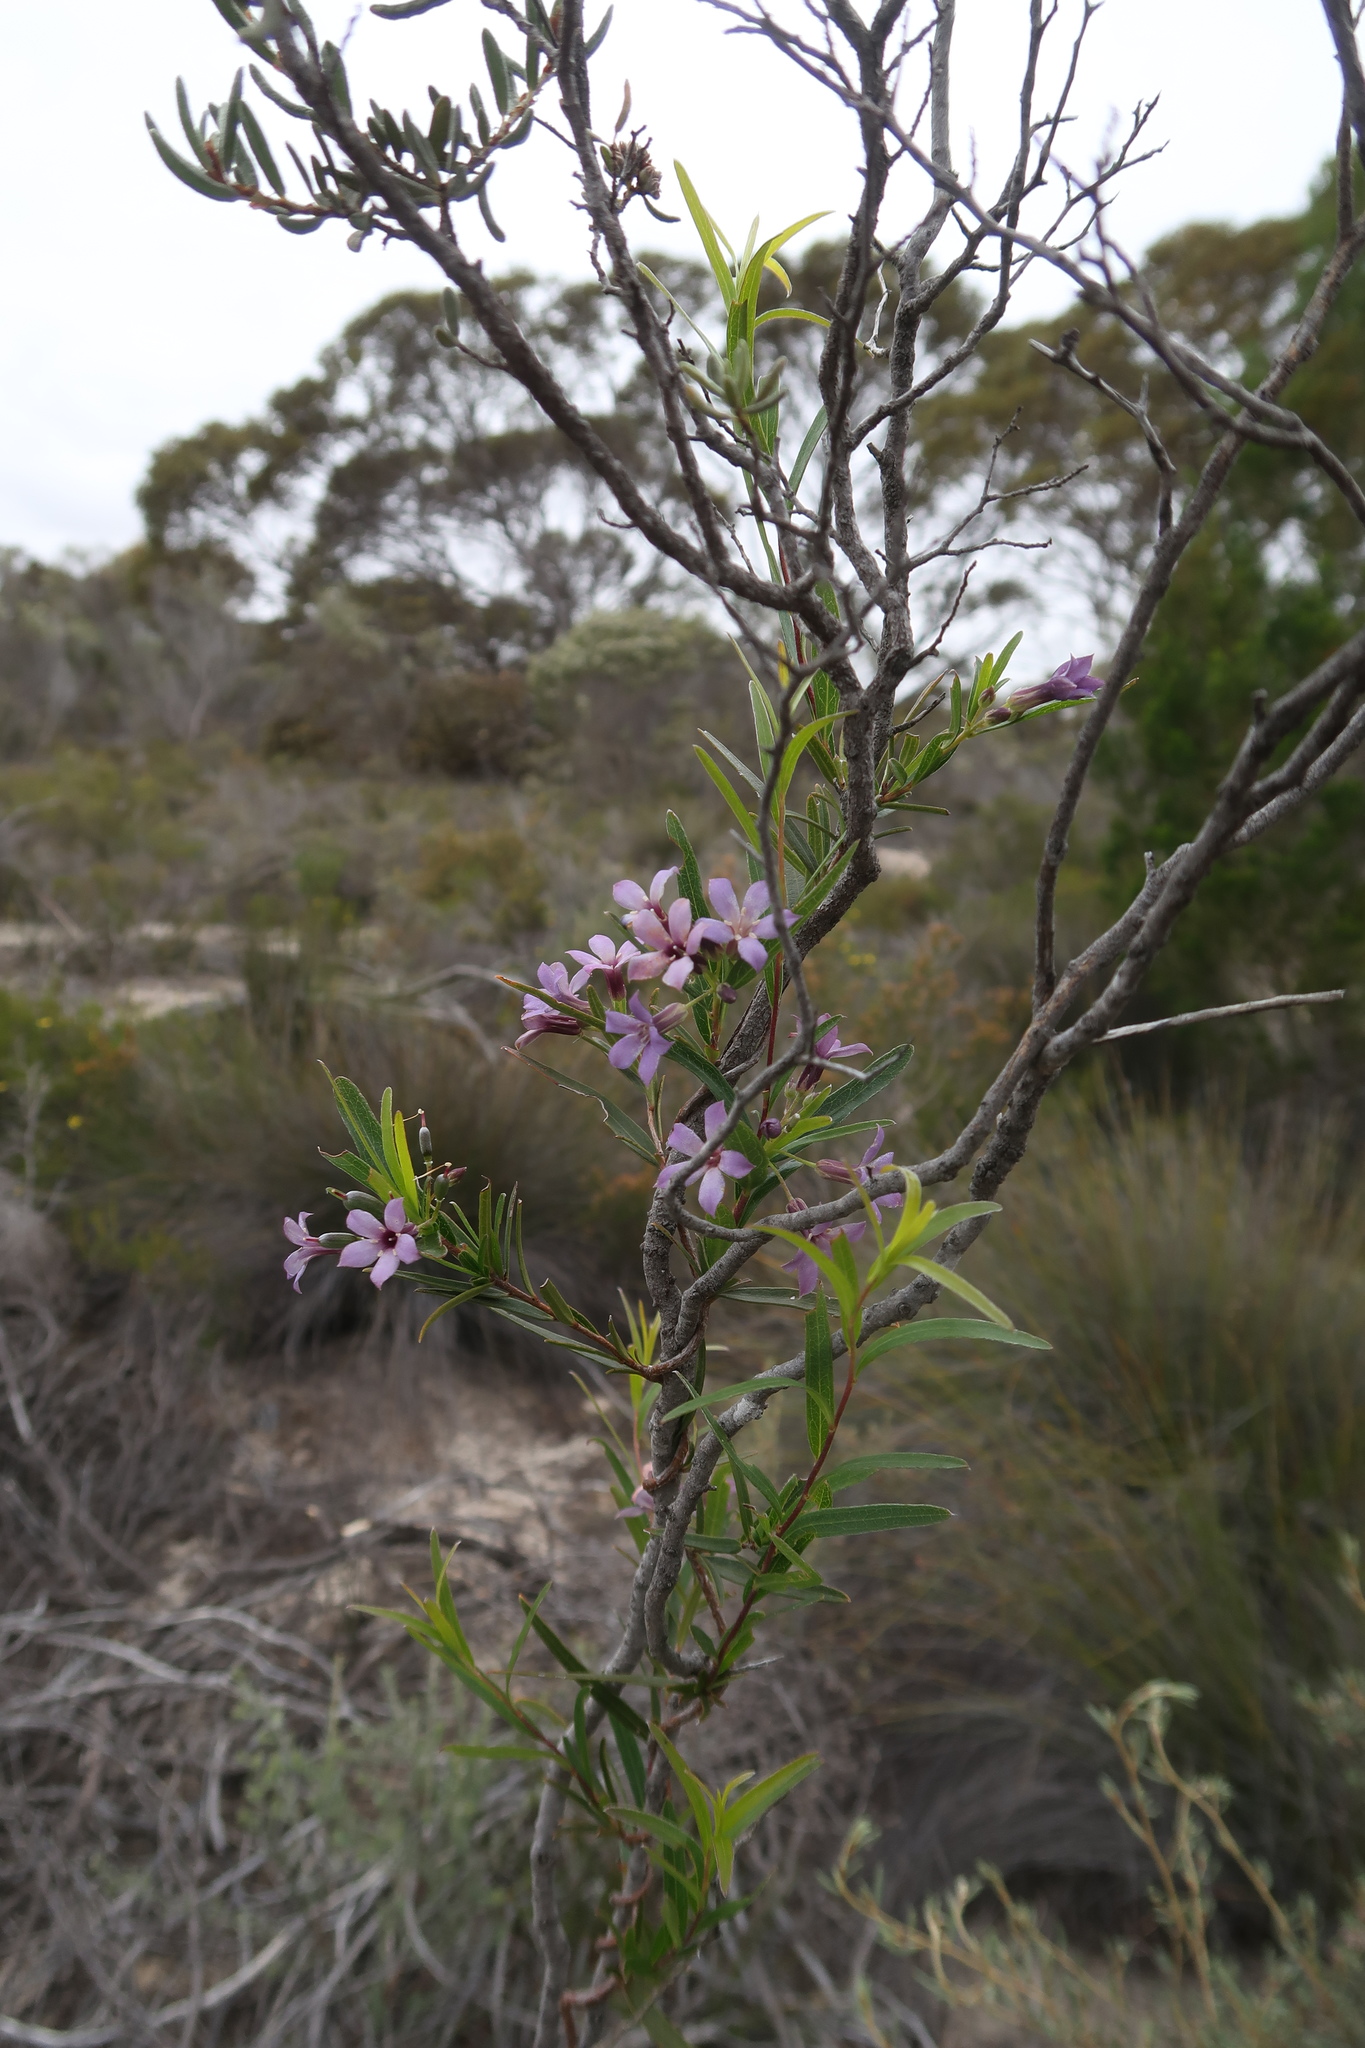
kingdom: Plantae
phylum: Tracheophyta
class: Magnoliopsida
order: Apiales
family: Pittosporaceae
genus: Billardiera
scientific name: Billardiera cymosa
